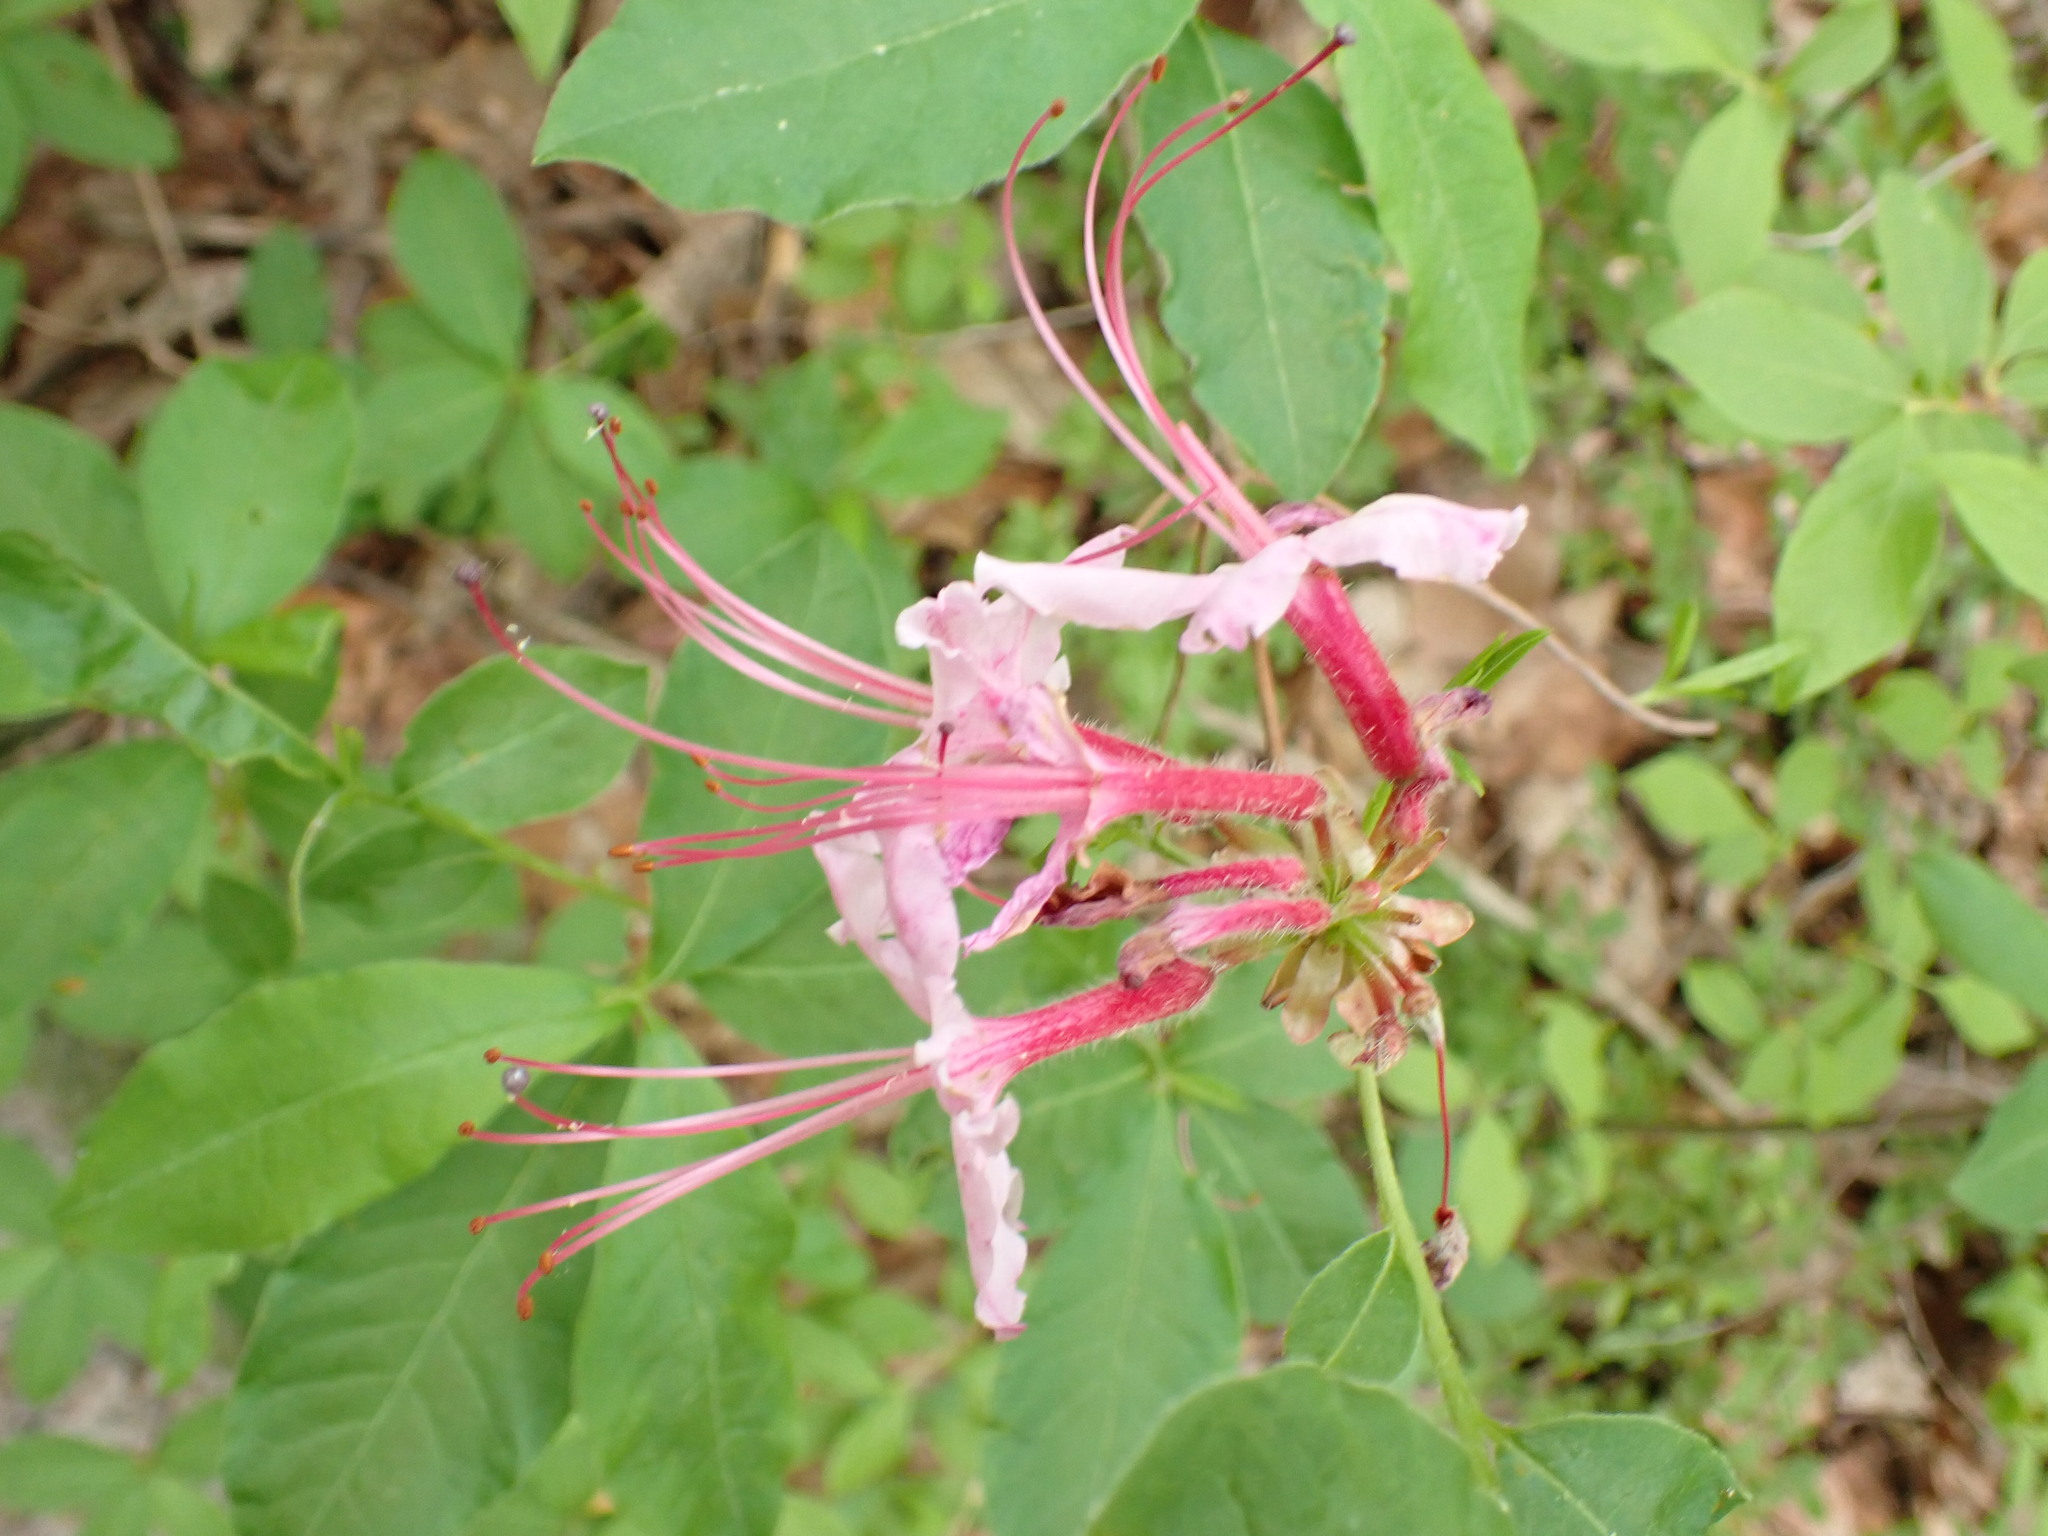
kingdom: Plantae
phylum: Tracheophyta
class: Magnoliopsida
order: Ericales
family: Ericaceae
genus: Rhododendron
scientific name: Rhododendron periclymenoides
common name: Election-pink
